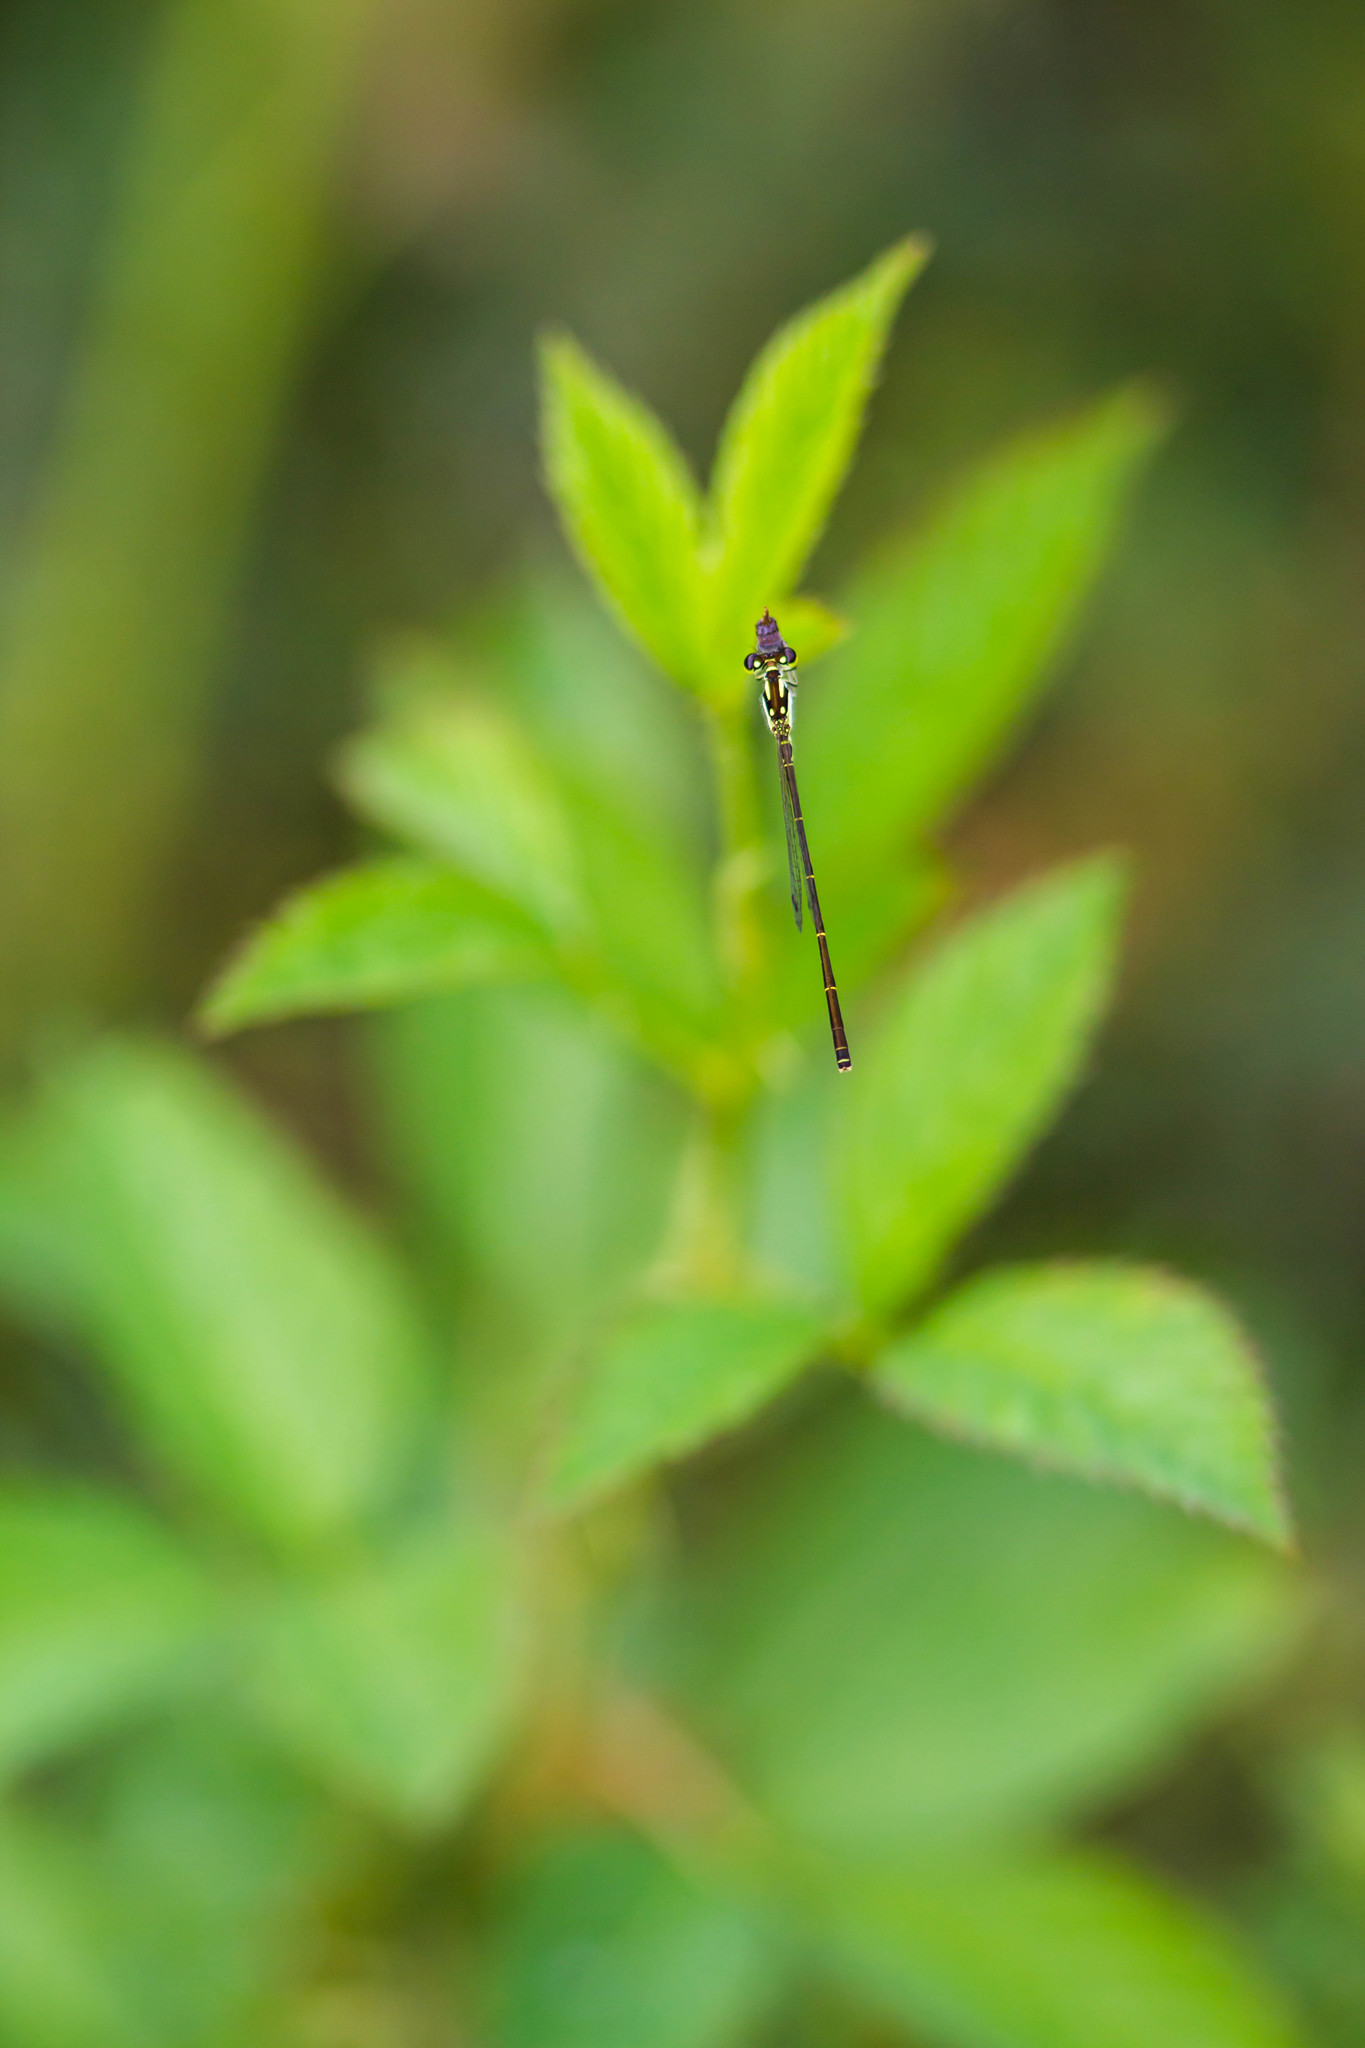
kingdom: Animalia
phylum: Arthropoda
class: Insecta
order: Odonata
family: Coenagrionidae
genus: Ischnura
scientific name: Ischnura posita
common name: Fragile forktail
